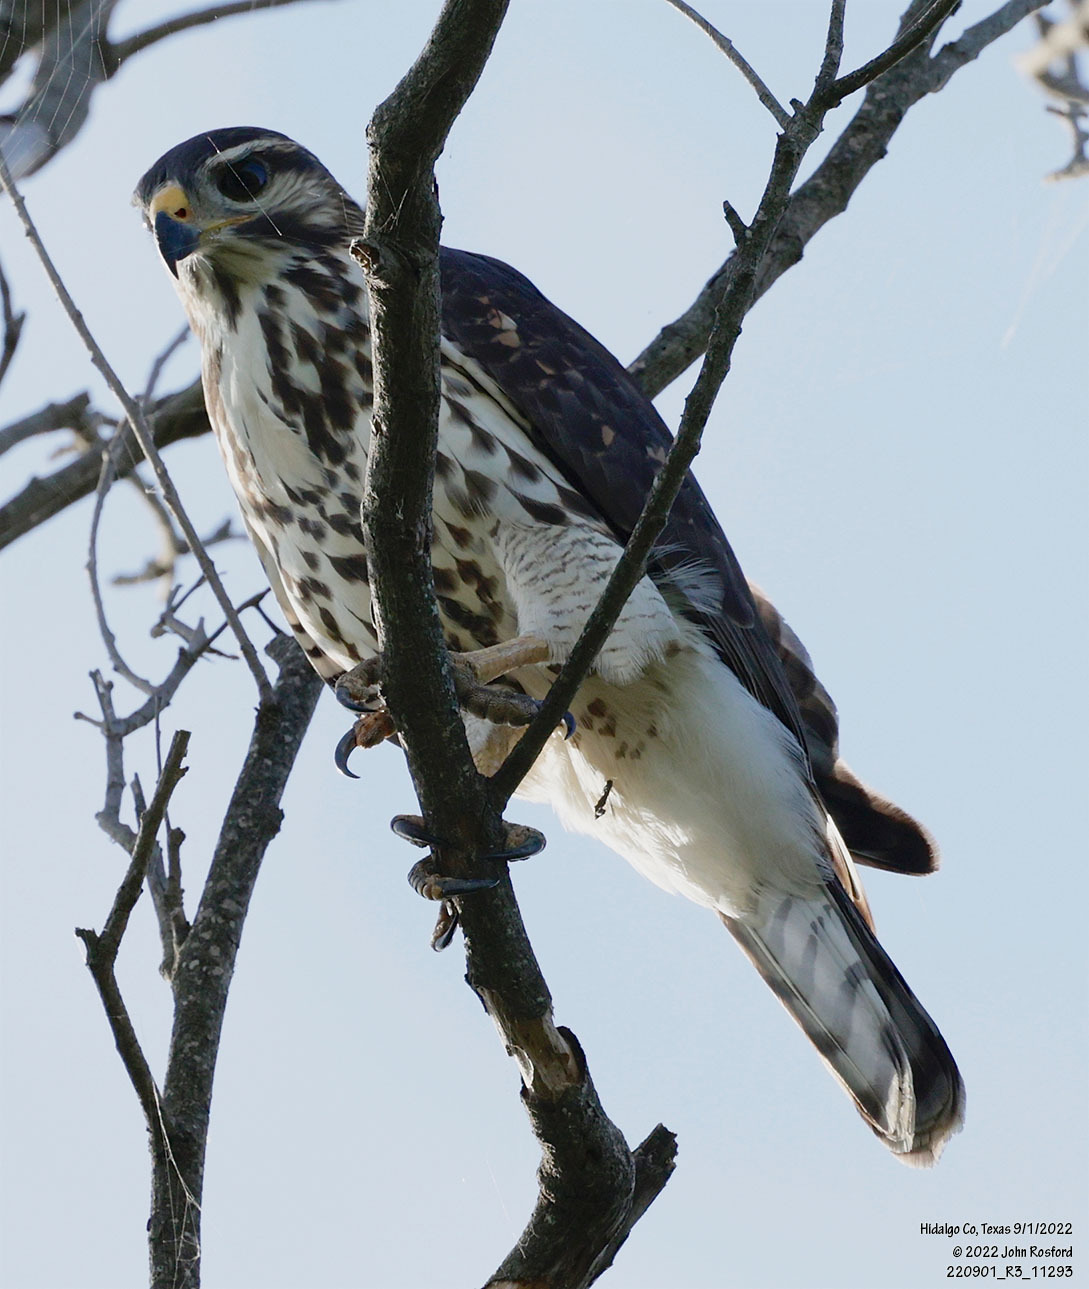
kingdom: Animalia
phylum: Chordata
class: Aves
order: Accipitriformes
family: Accipitridae
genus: Buteo
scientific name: Buteo nitidus
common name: Grey-lined hawk
